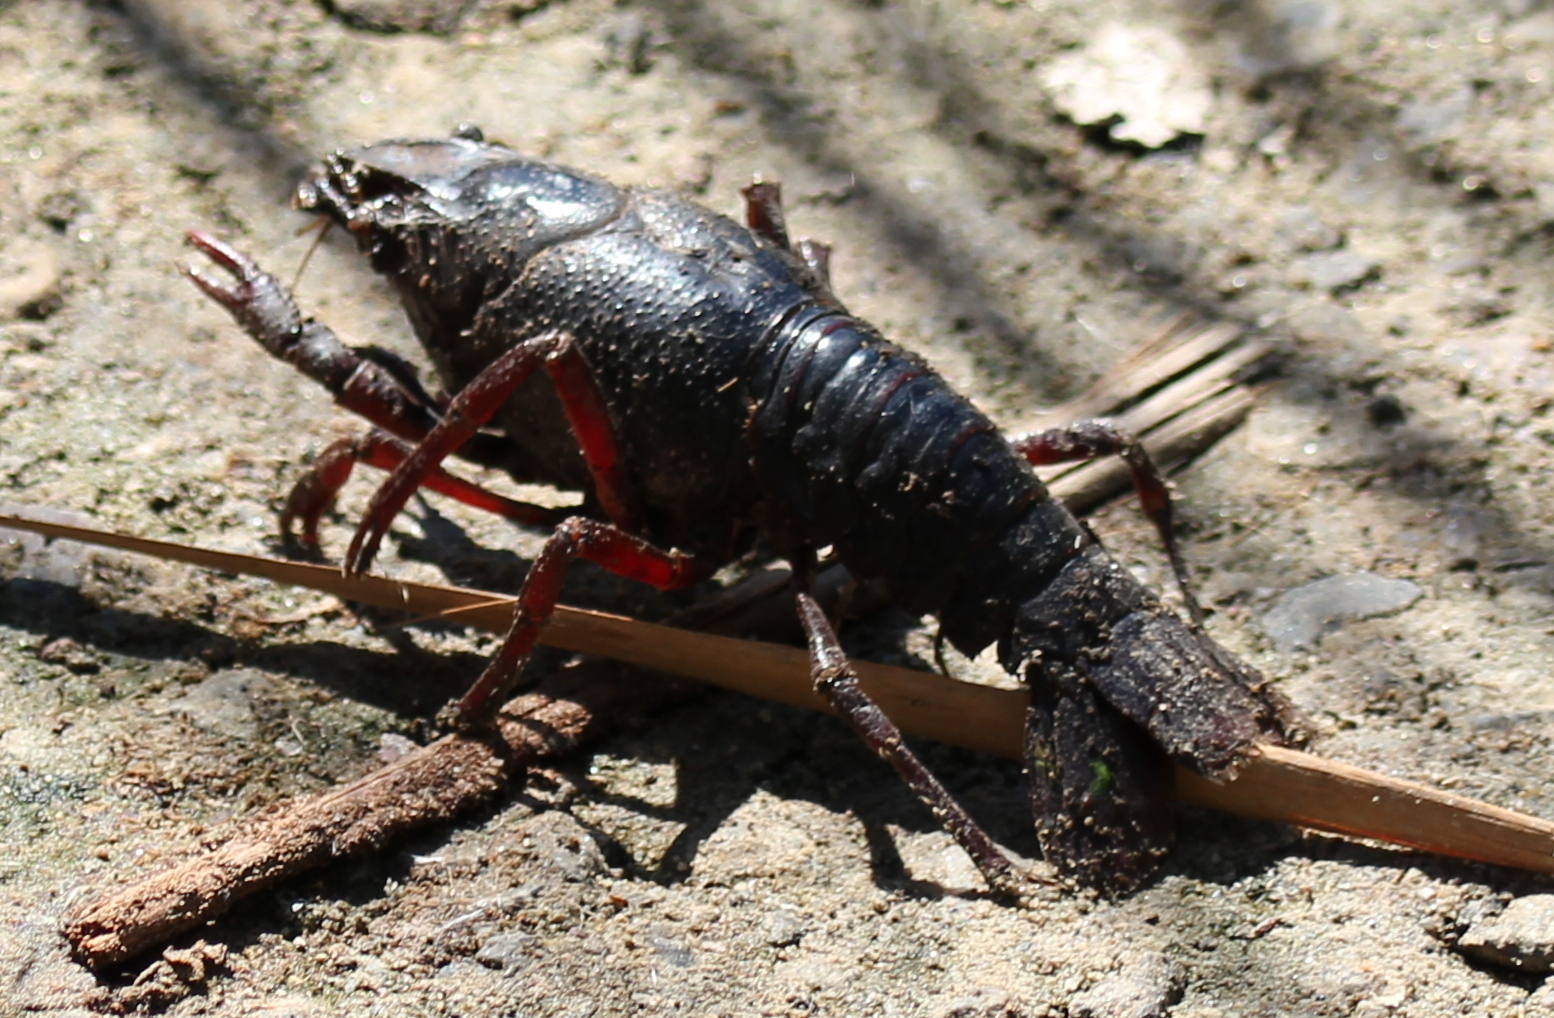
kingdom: Animalia
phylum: Arthropoda
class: Malacostraca
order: Decapoda
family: Cambaridae
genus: Procambarus
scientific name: Procambarus clarkii
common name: Red swamp crayfish
